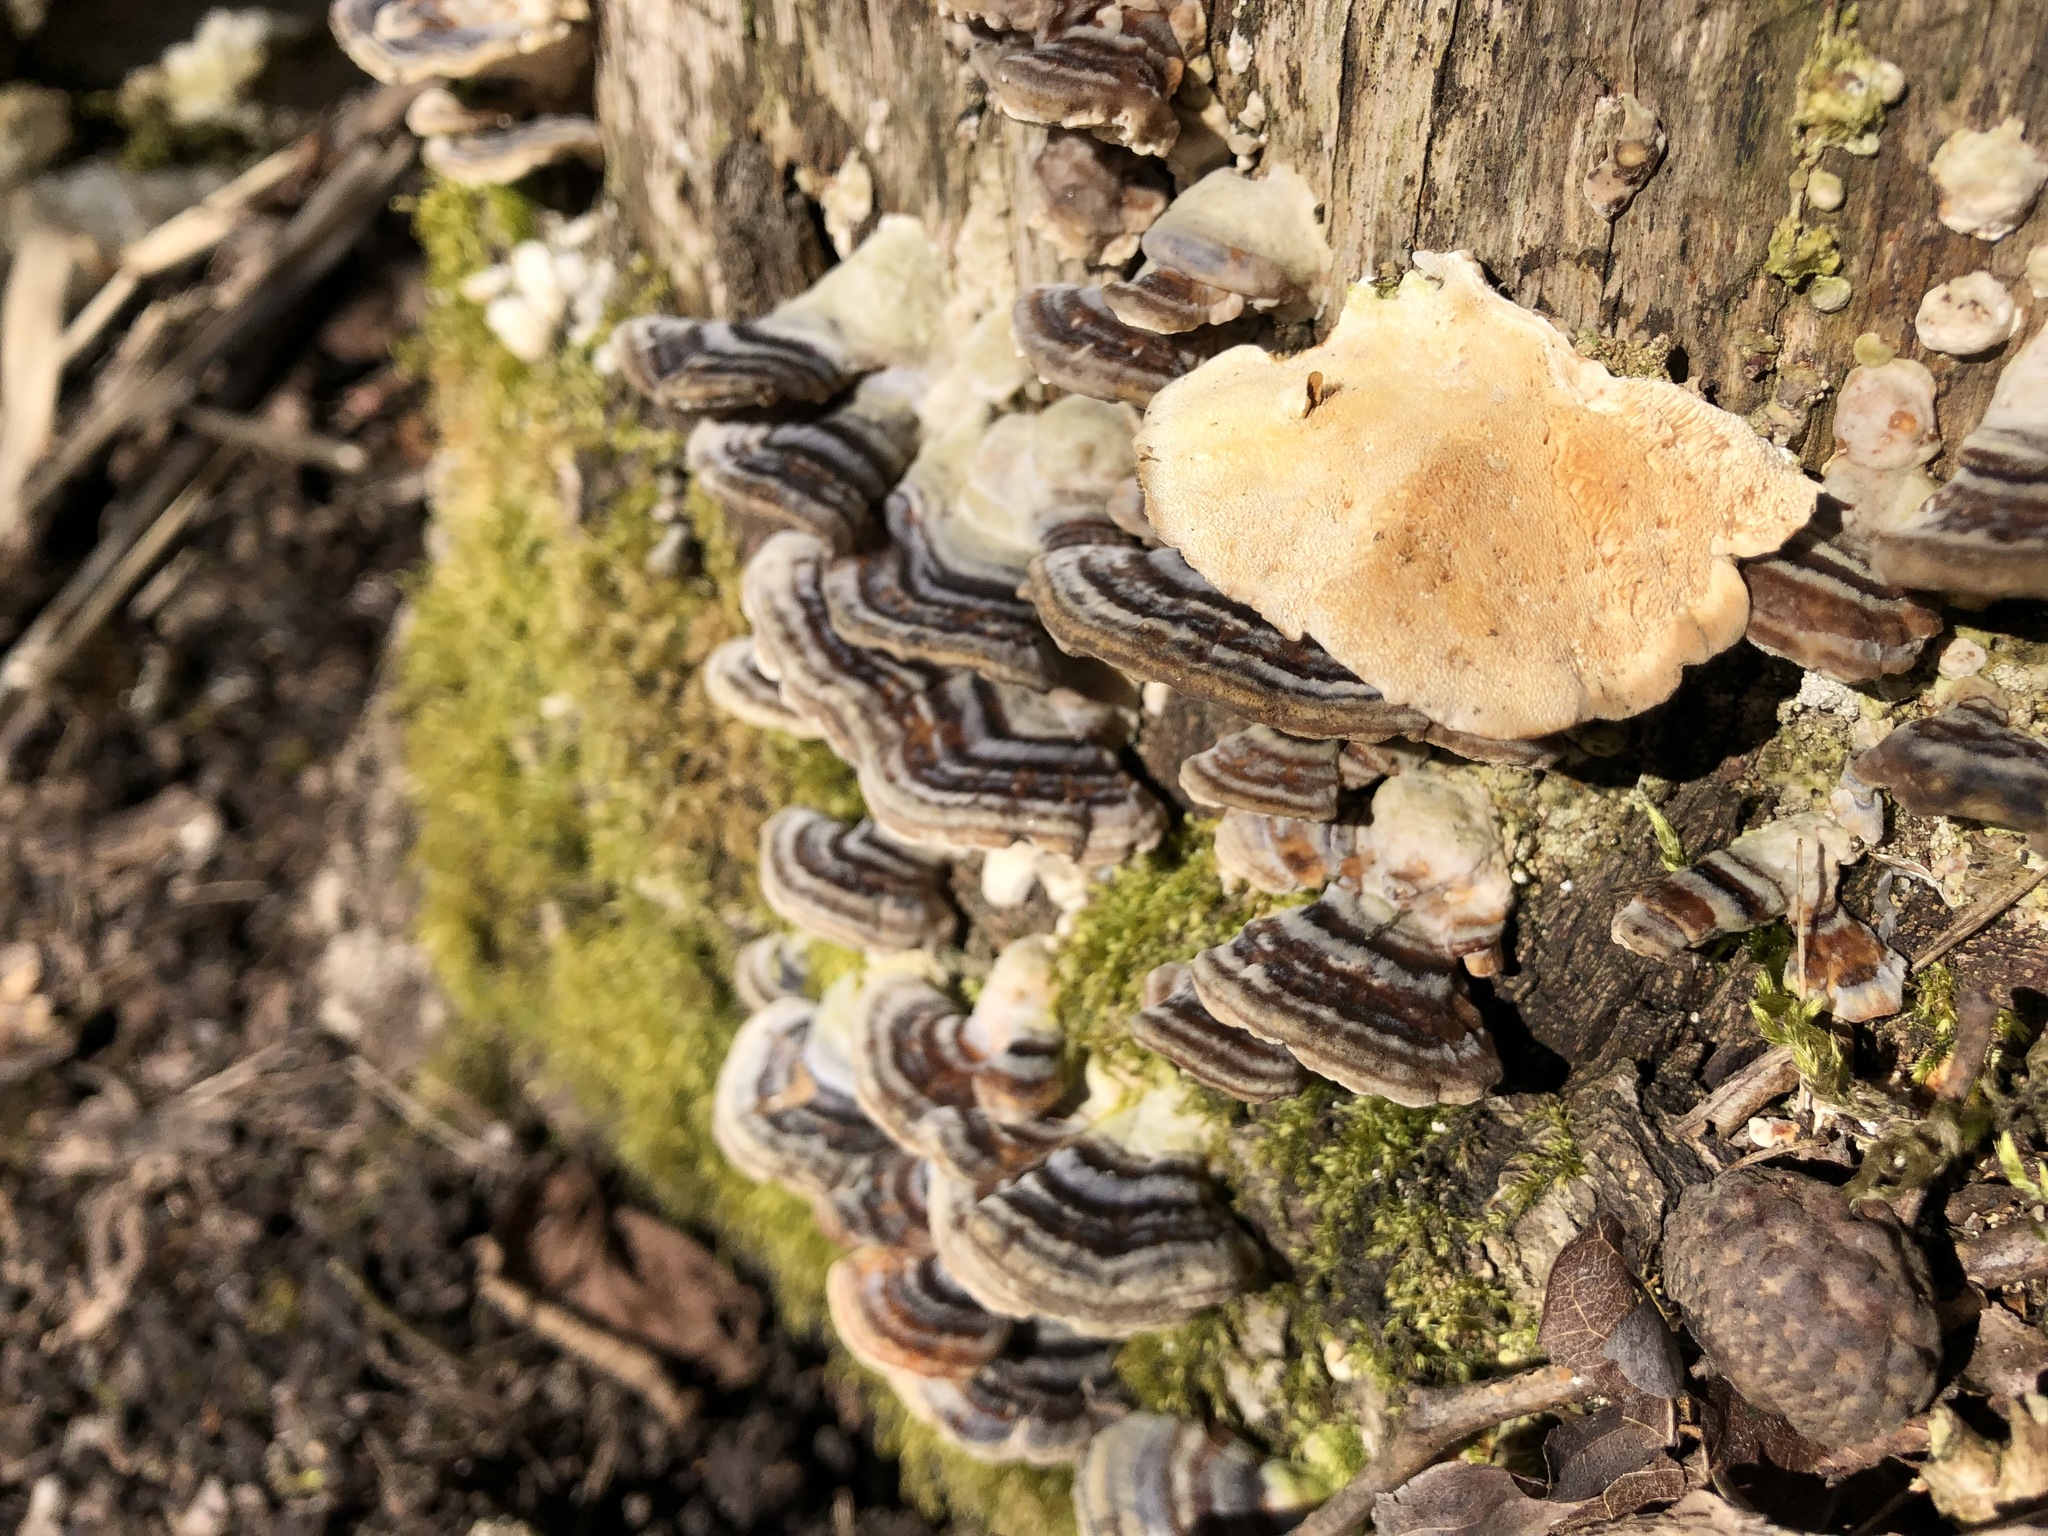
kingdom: Fungi
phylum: Basidiomycota
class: Agaricomycetes
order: Polyporales
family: Polyporaceae
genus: Trametes
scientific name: Trametes versicolor
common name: Turkeytail
